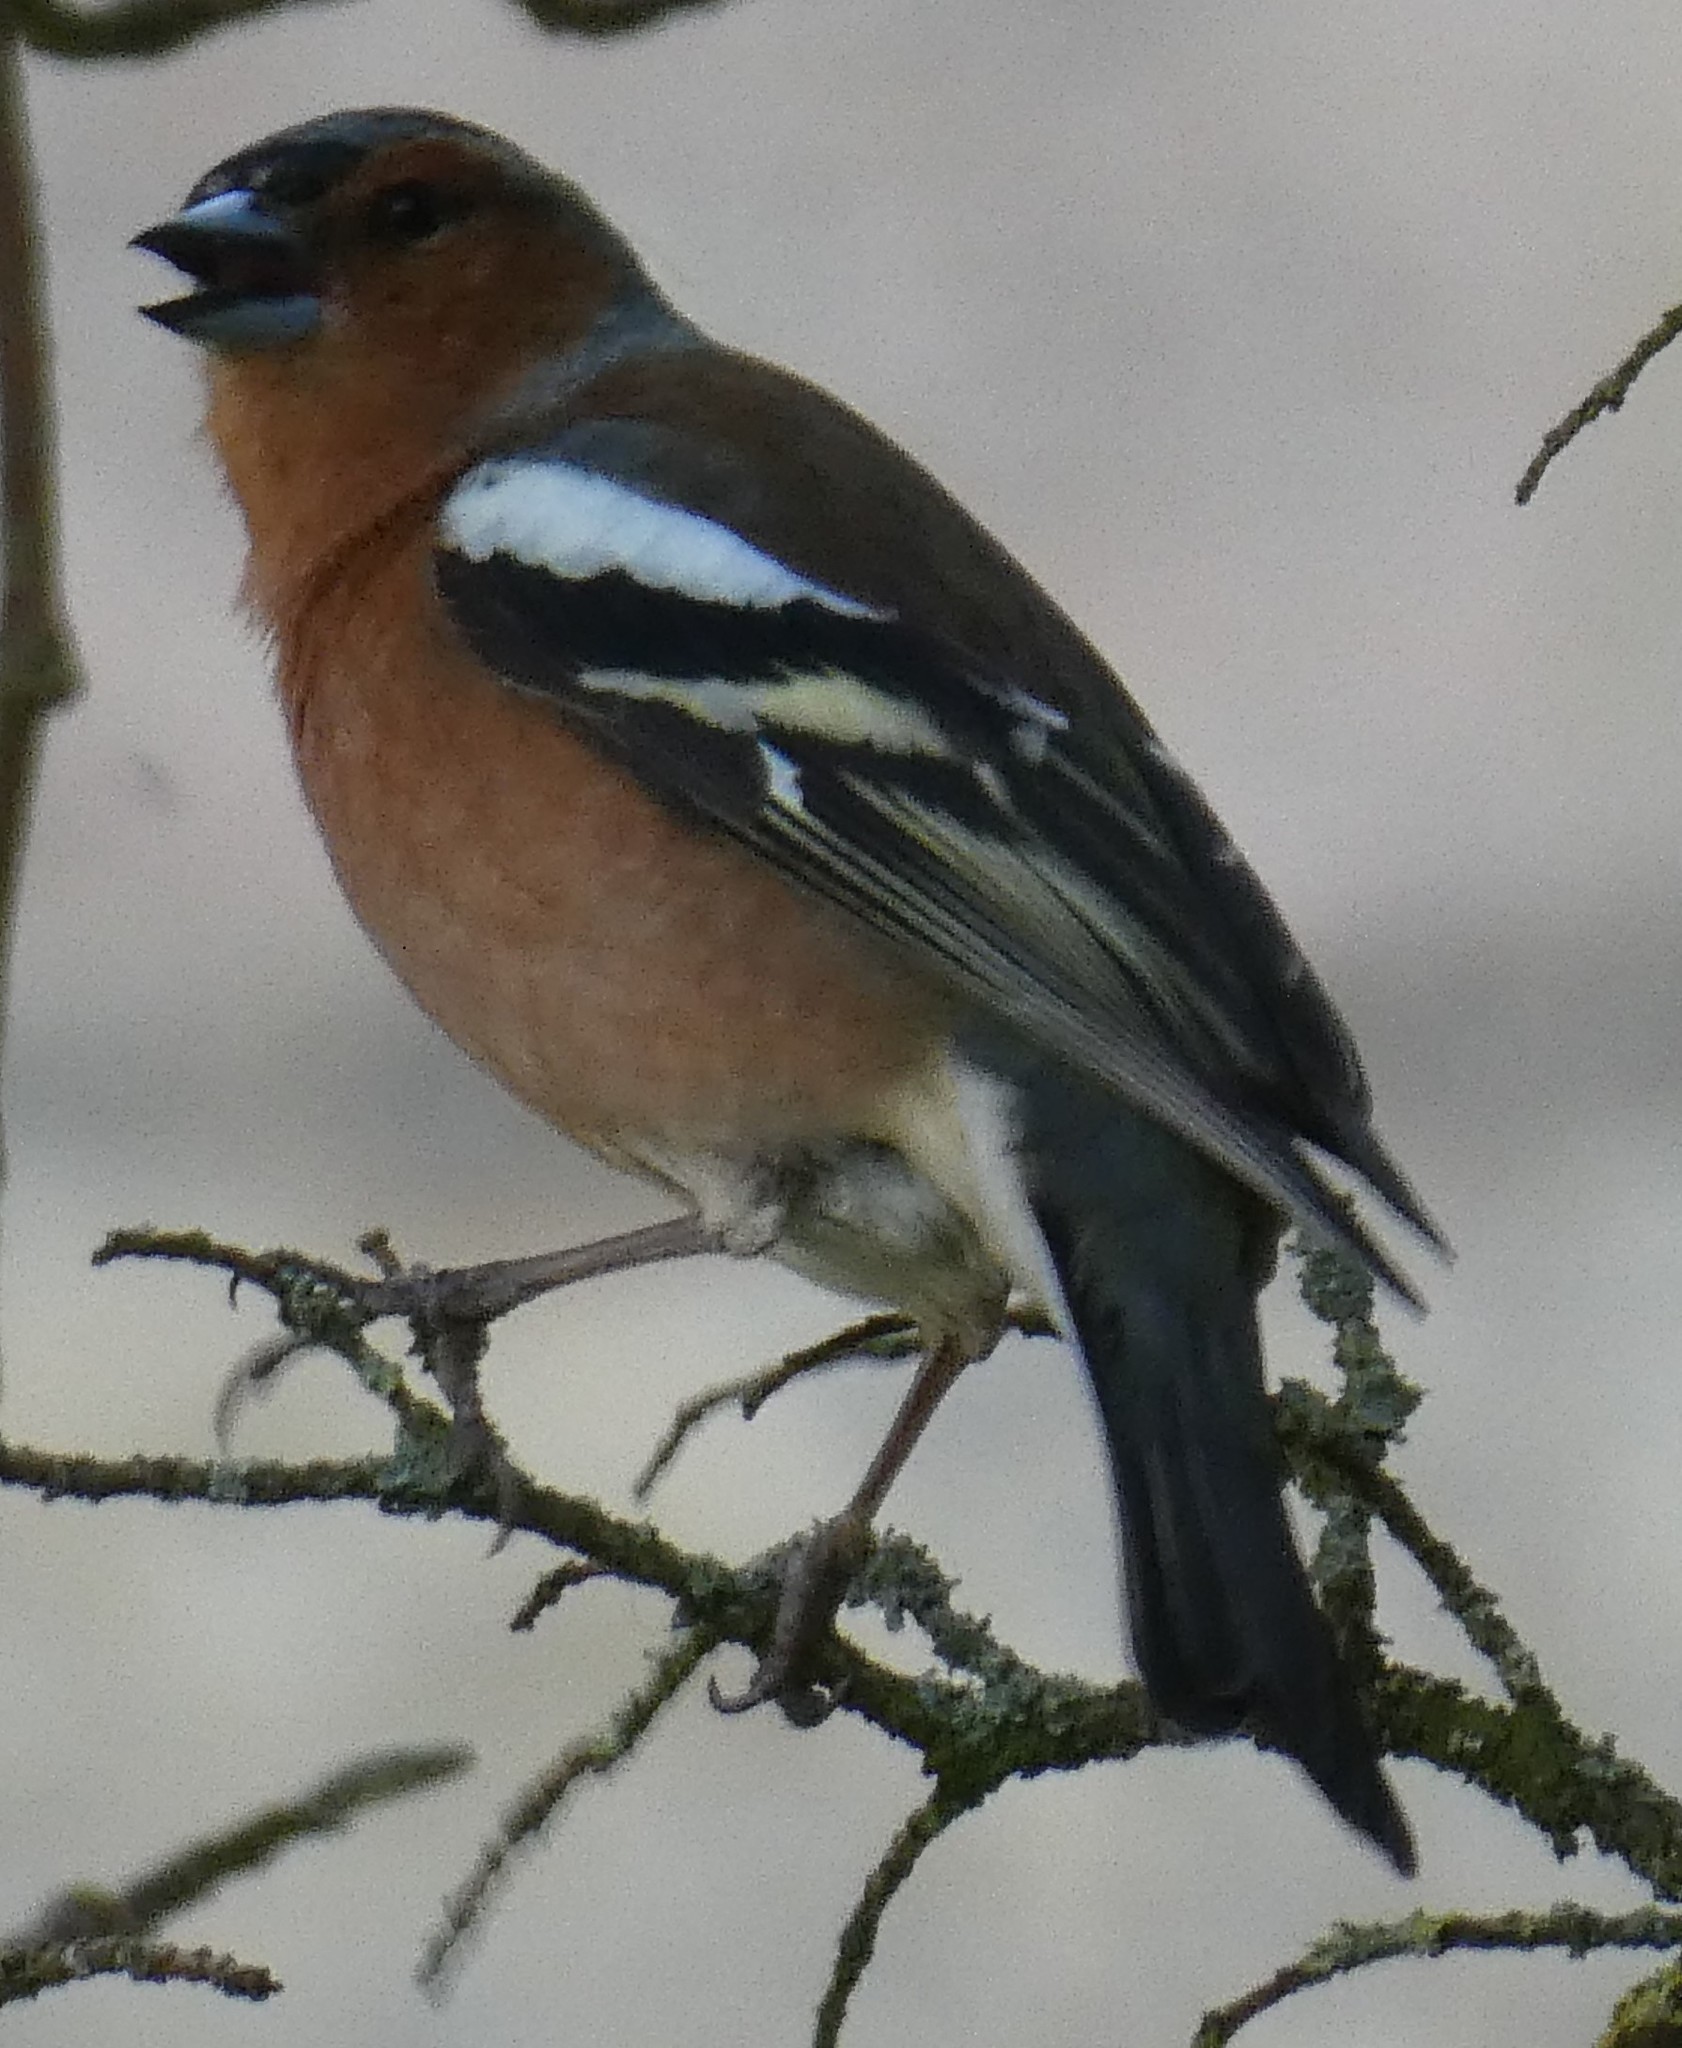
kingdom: Animalia
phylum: Chordata
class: Aves
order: Passeriformes
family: Fringillidae
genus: Fringilla
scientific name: Fringilla coelebs
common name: Common chaffinch
